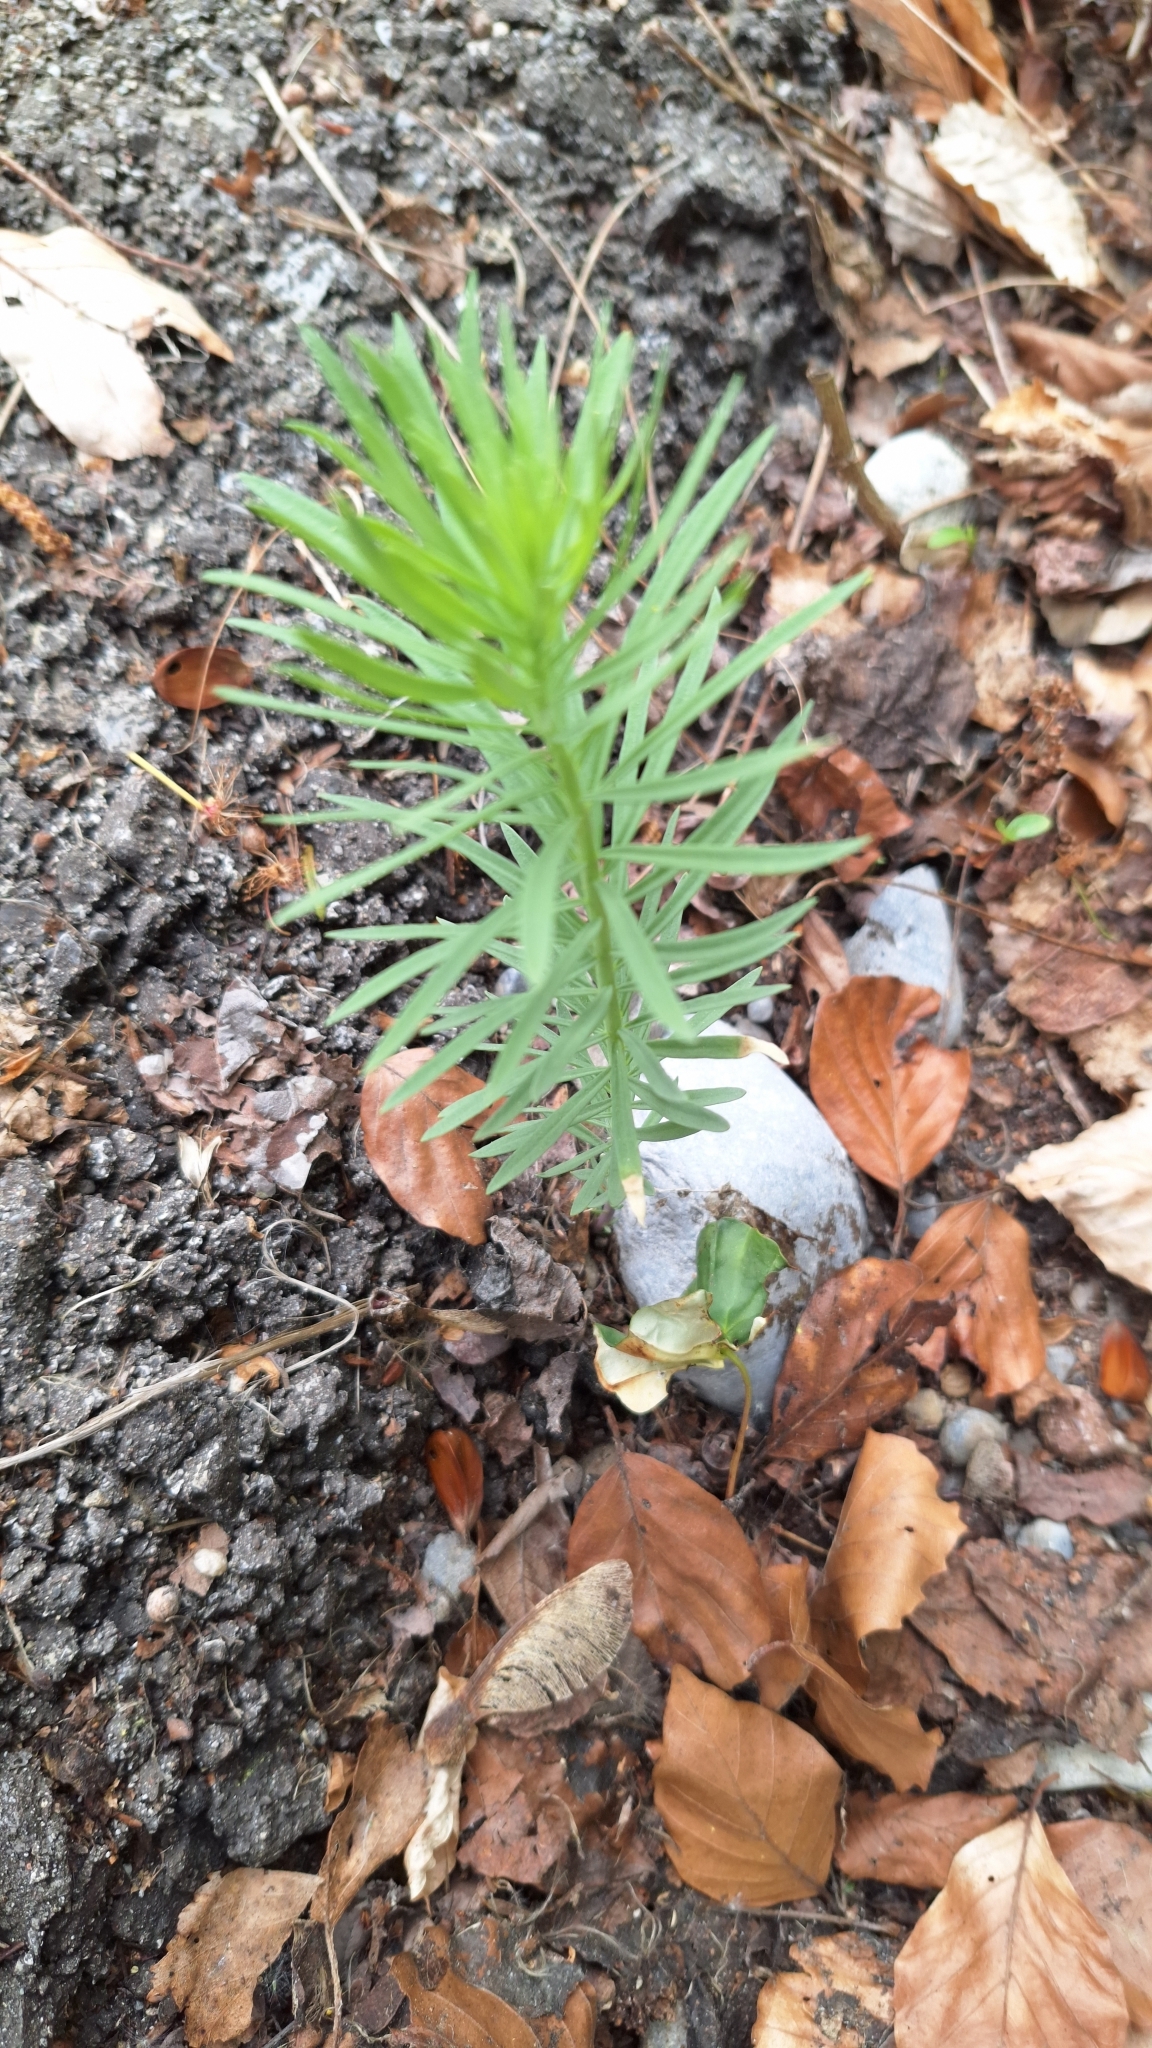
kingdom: Plantae
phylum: Tracheophyta
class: Magnoliopsida
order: Lamiales
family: Plantaginaceae
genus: Linaria
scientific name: Linaria vulgaris
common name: Butter and eggs
